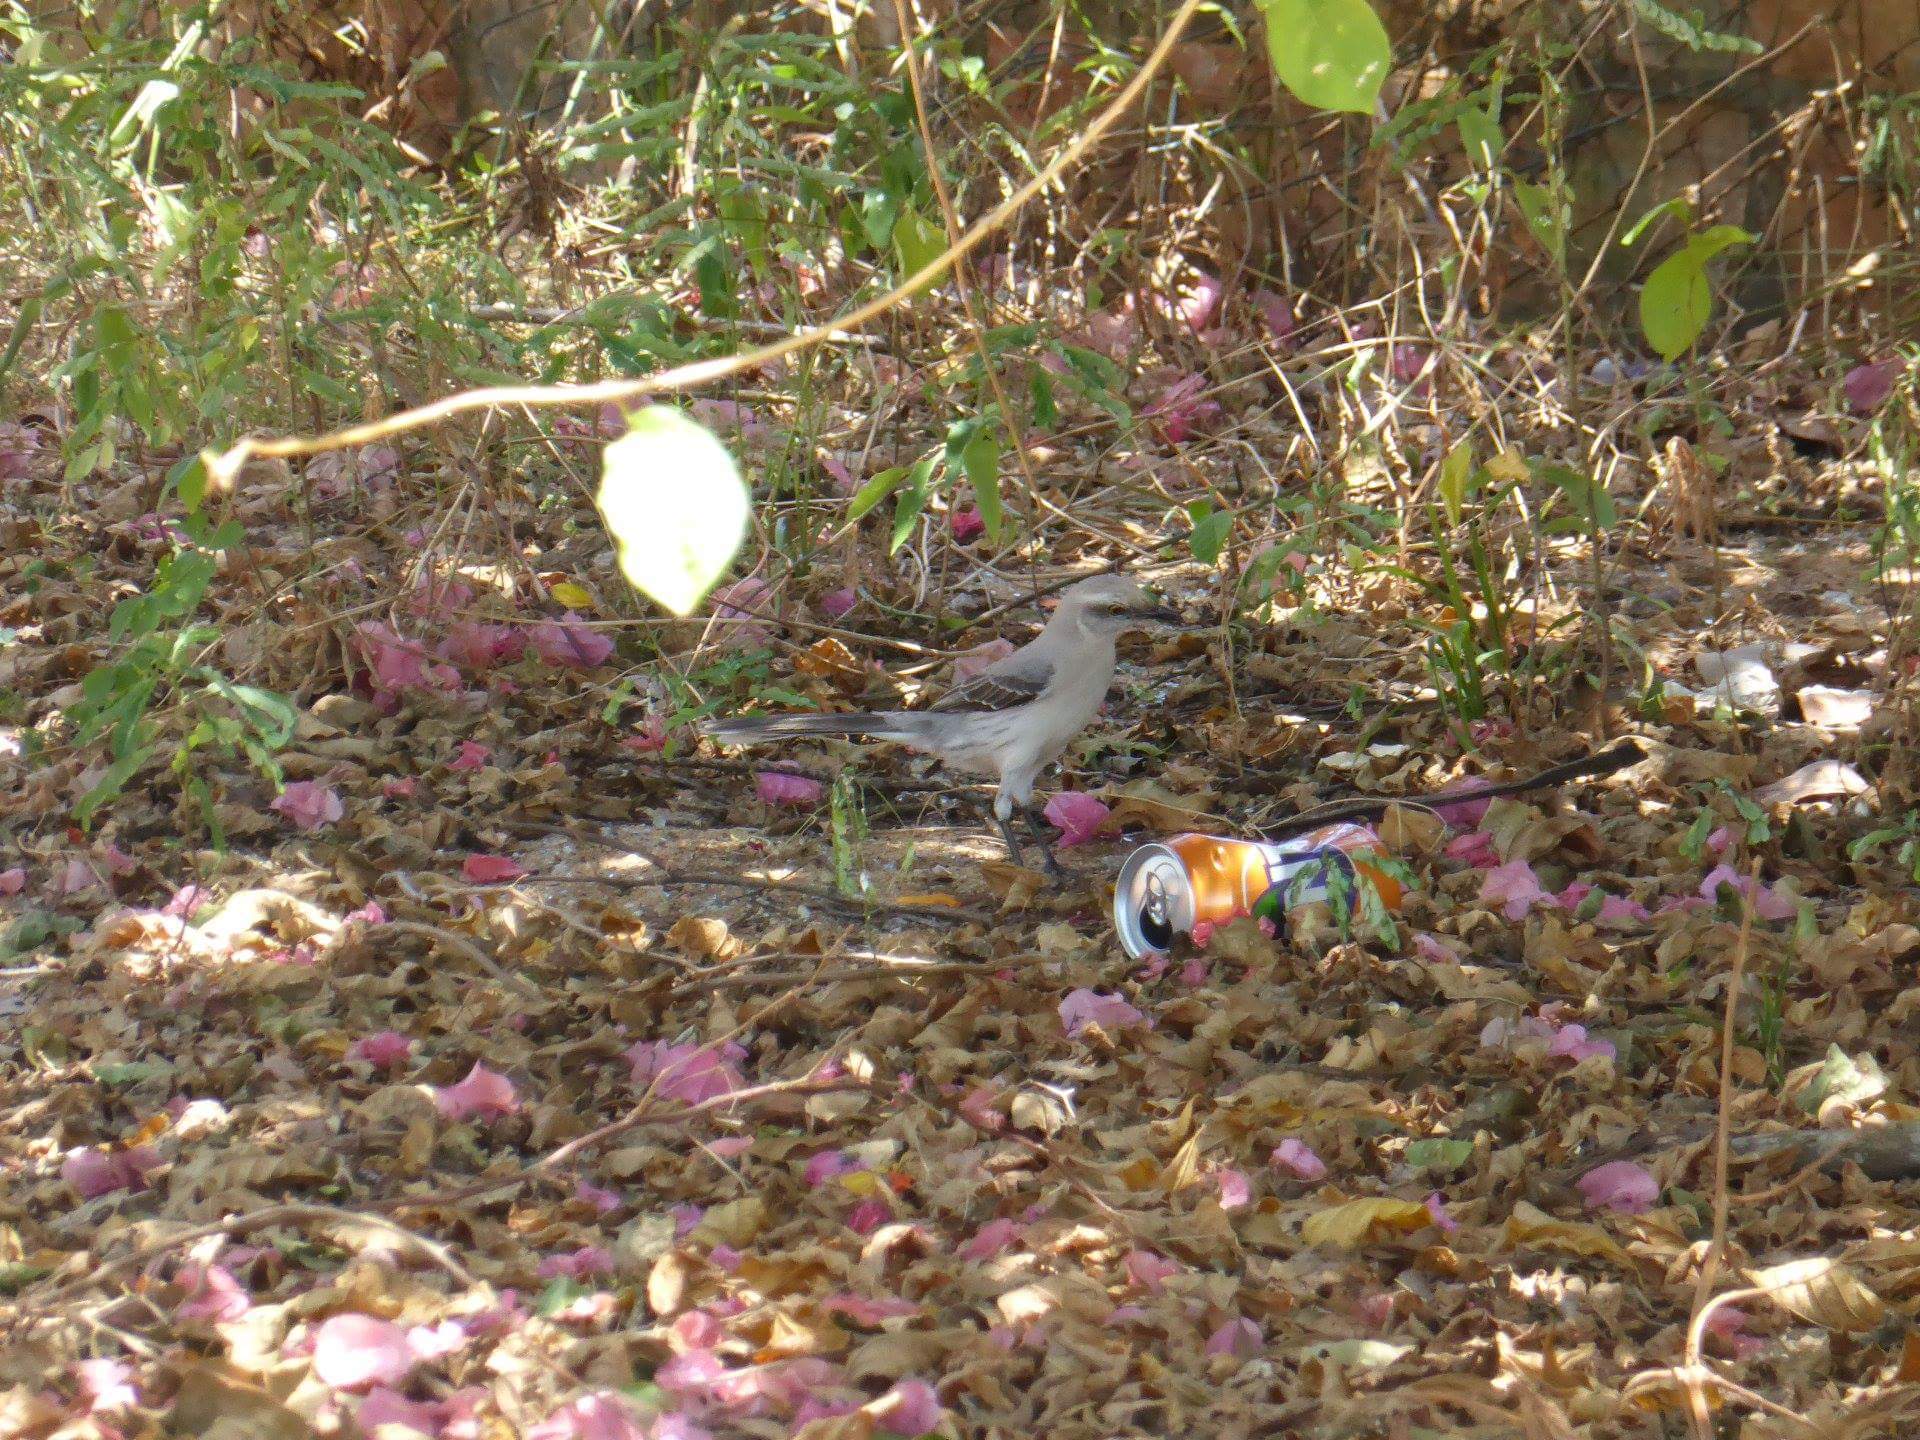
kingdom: Animalia
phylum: Chordata
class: Aves
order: Passeriformes
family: Mimidae
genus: Mimus
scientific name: Mimus gilvus
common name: Tropical mockingbird
